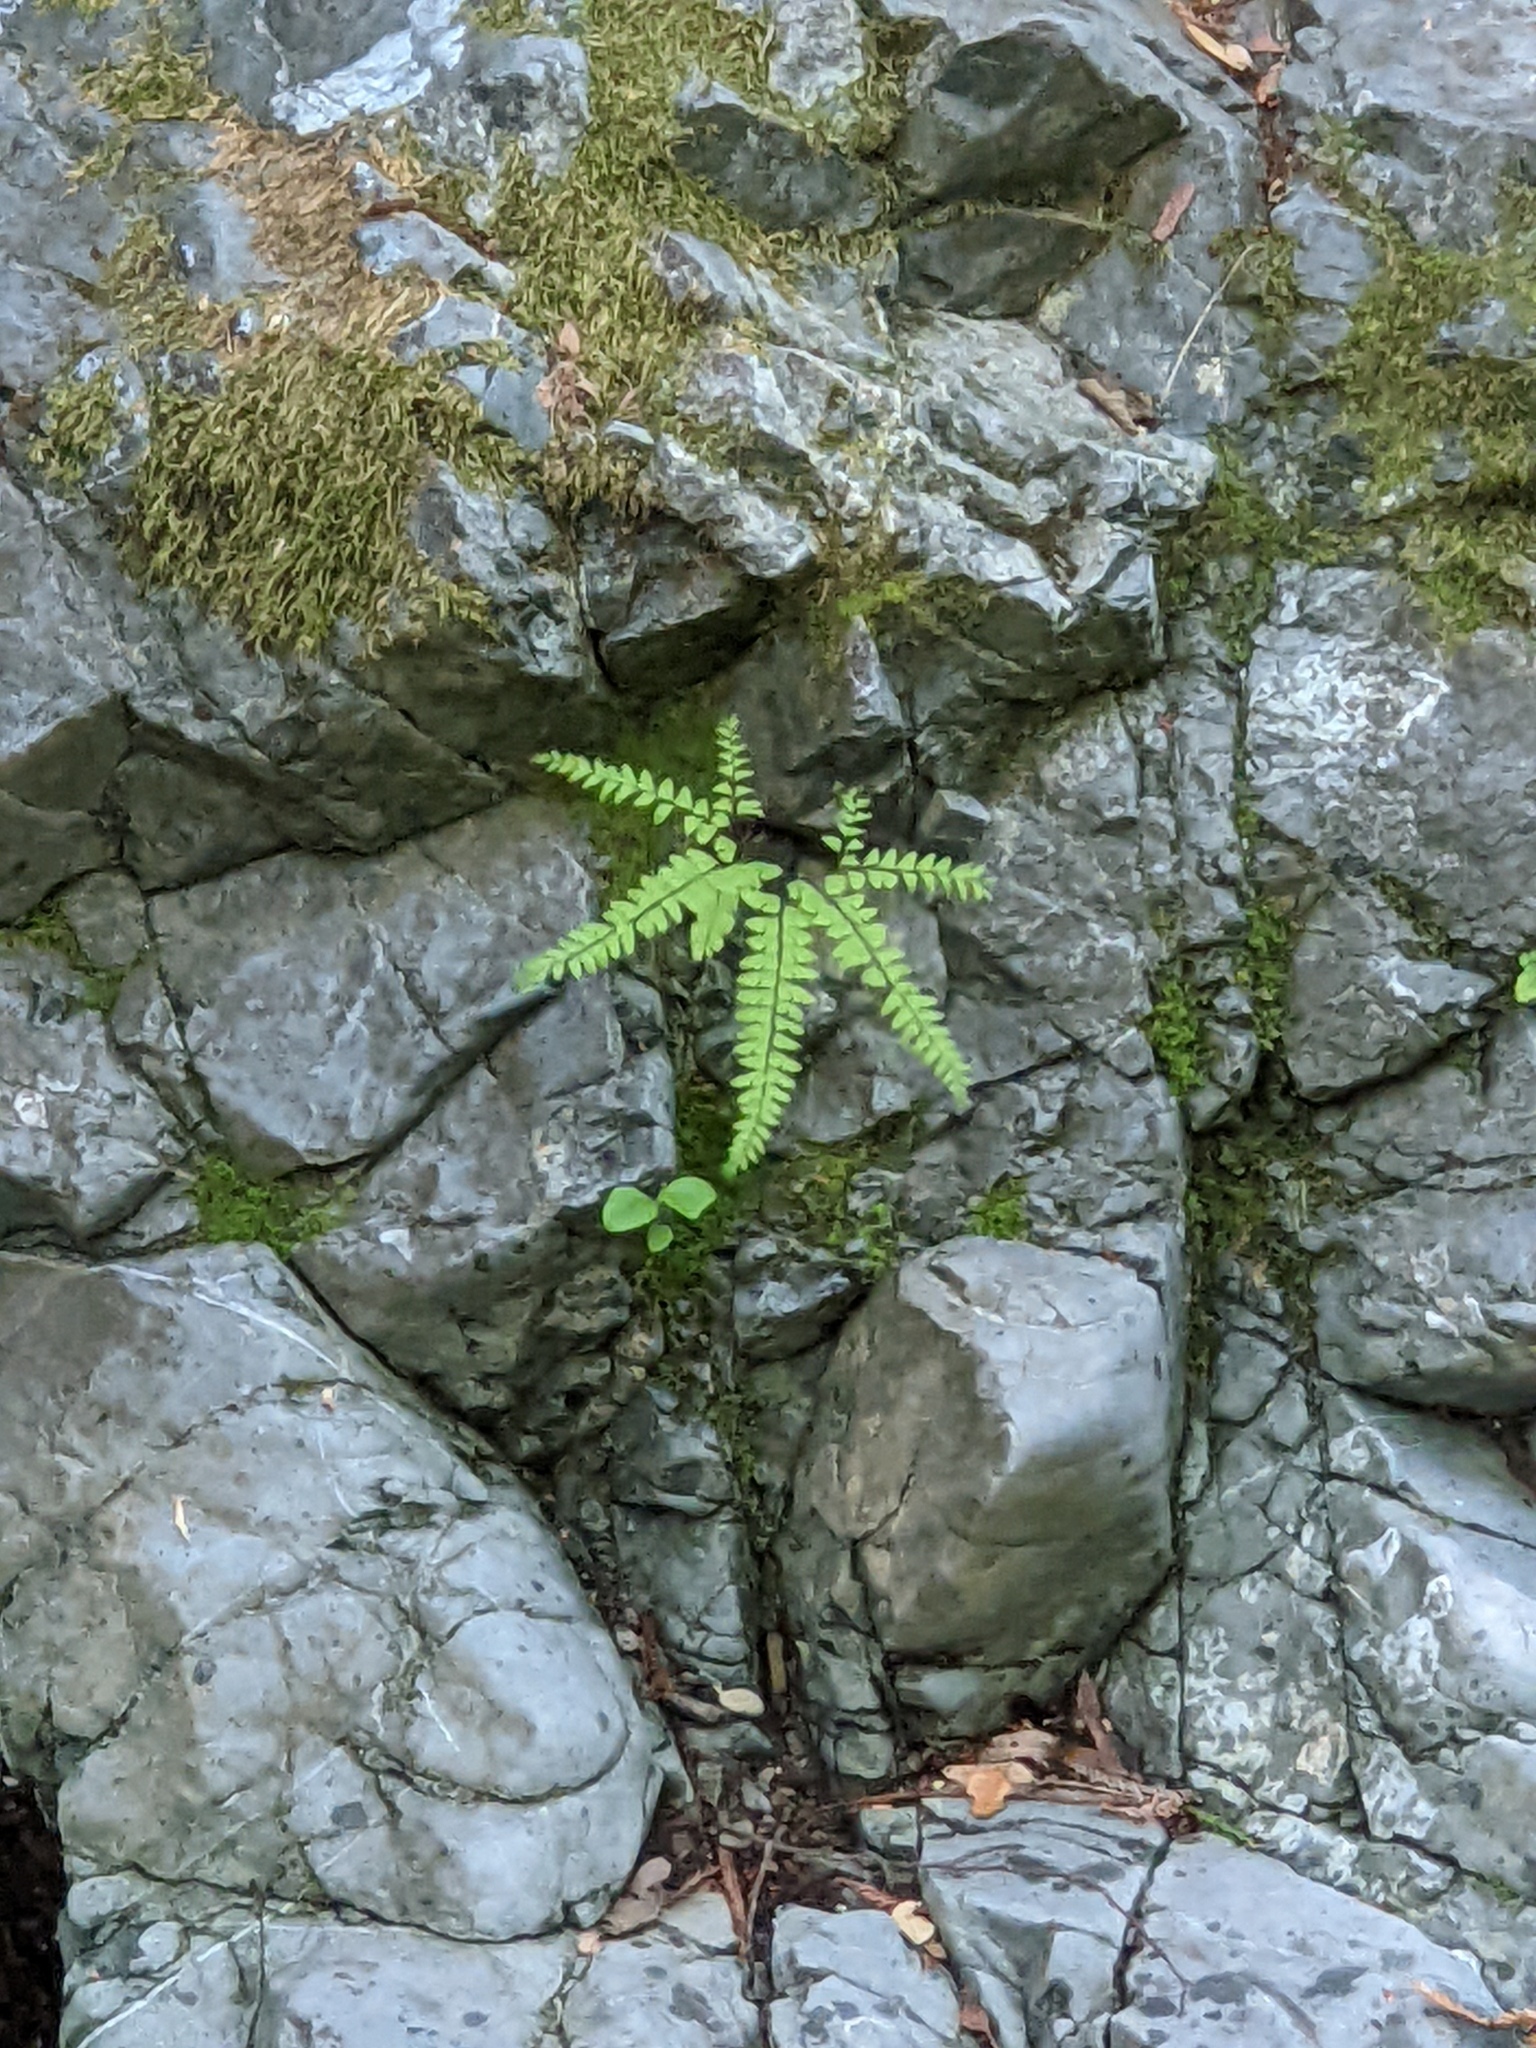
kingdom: Plantae
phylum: Tracheophyta
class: Polypodiopsida
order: Polypodiales
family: Pteridaceae
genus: Adiantum
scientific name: Adiantum aleuticum
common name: Aleutian maidenhair fern
